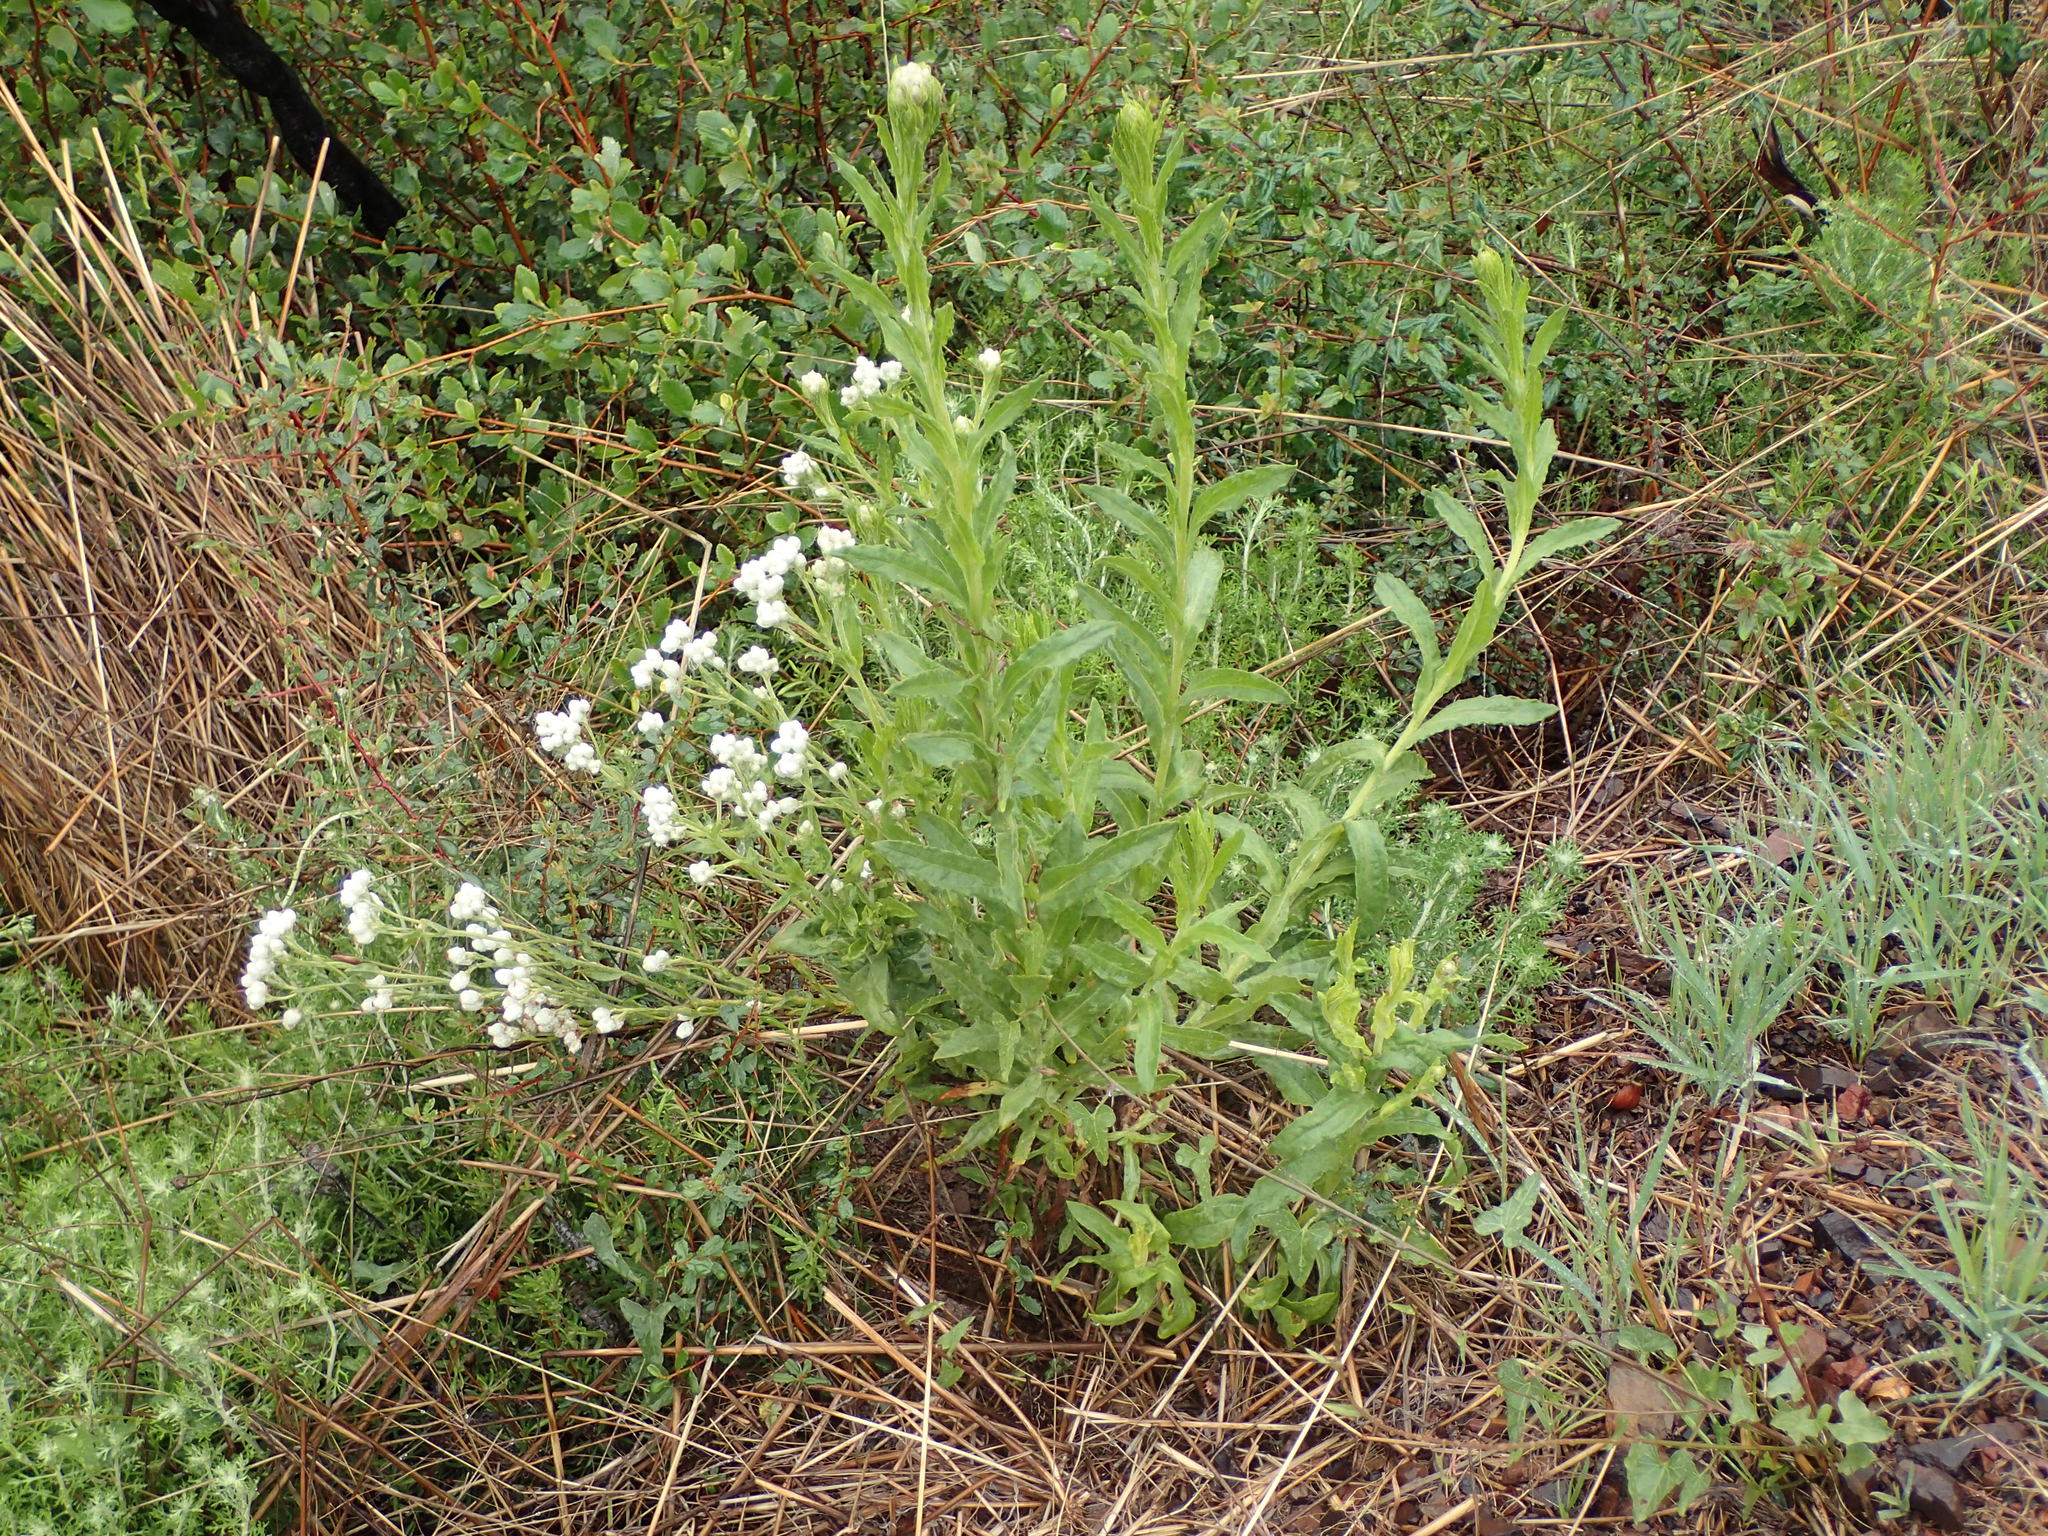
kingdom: Plantae
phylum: Tracheophyta
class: Magnoliopsida
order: Asterales
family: Asteraceae
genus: Pseudognaphalium
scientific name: Pseudognaphalium californicum
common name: California rabbit-tobacco
